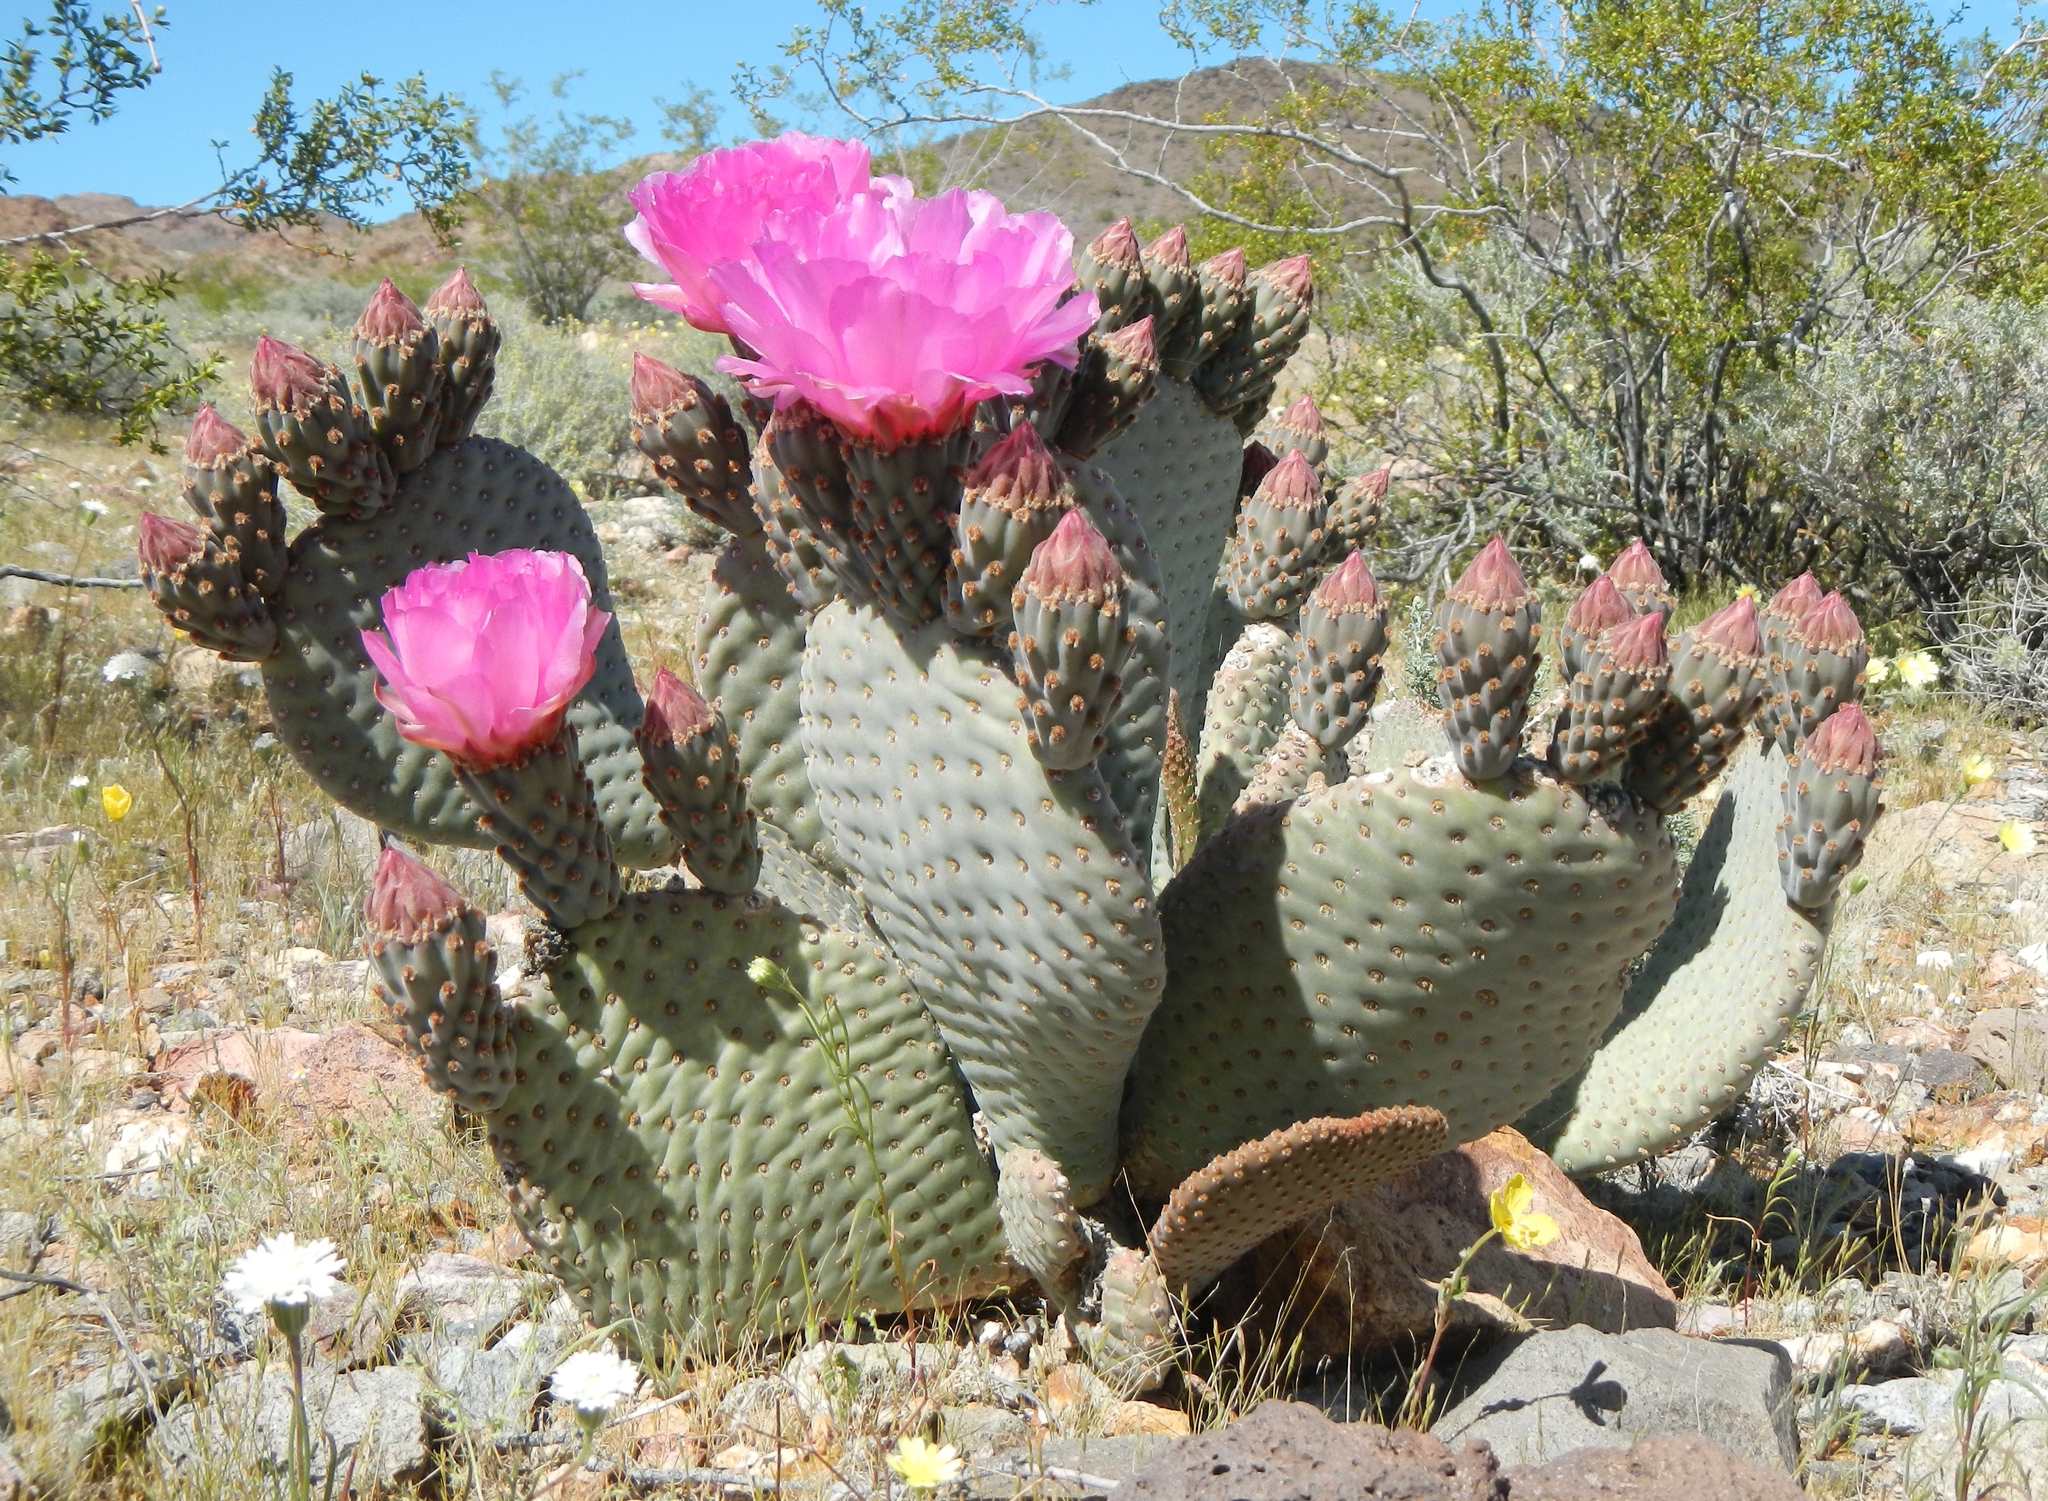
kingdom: Plantae
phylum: Tracheophyta
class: Magnoliopsida
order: Caryophyllales
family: Cactaceae
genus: Opuntia
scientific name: Opuntia basilaris
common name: Beavertail prickly-pear
